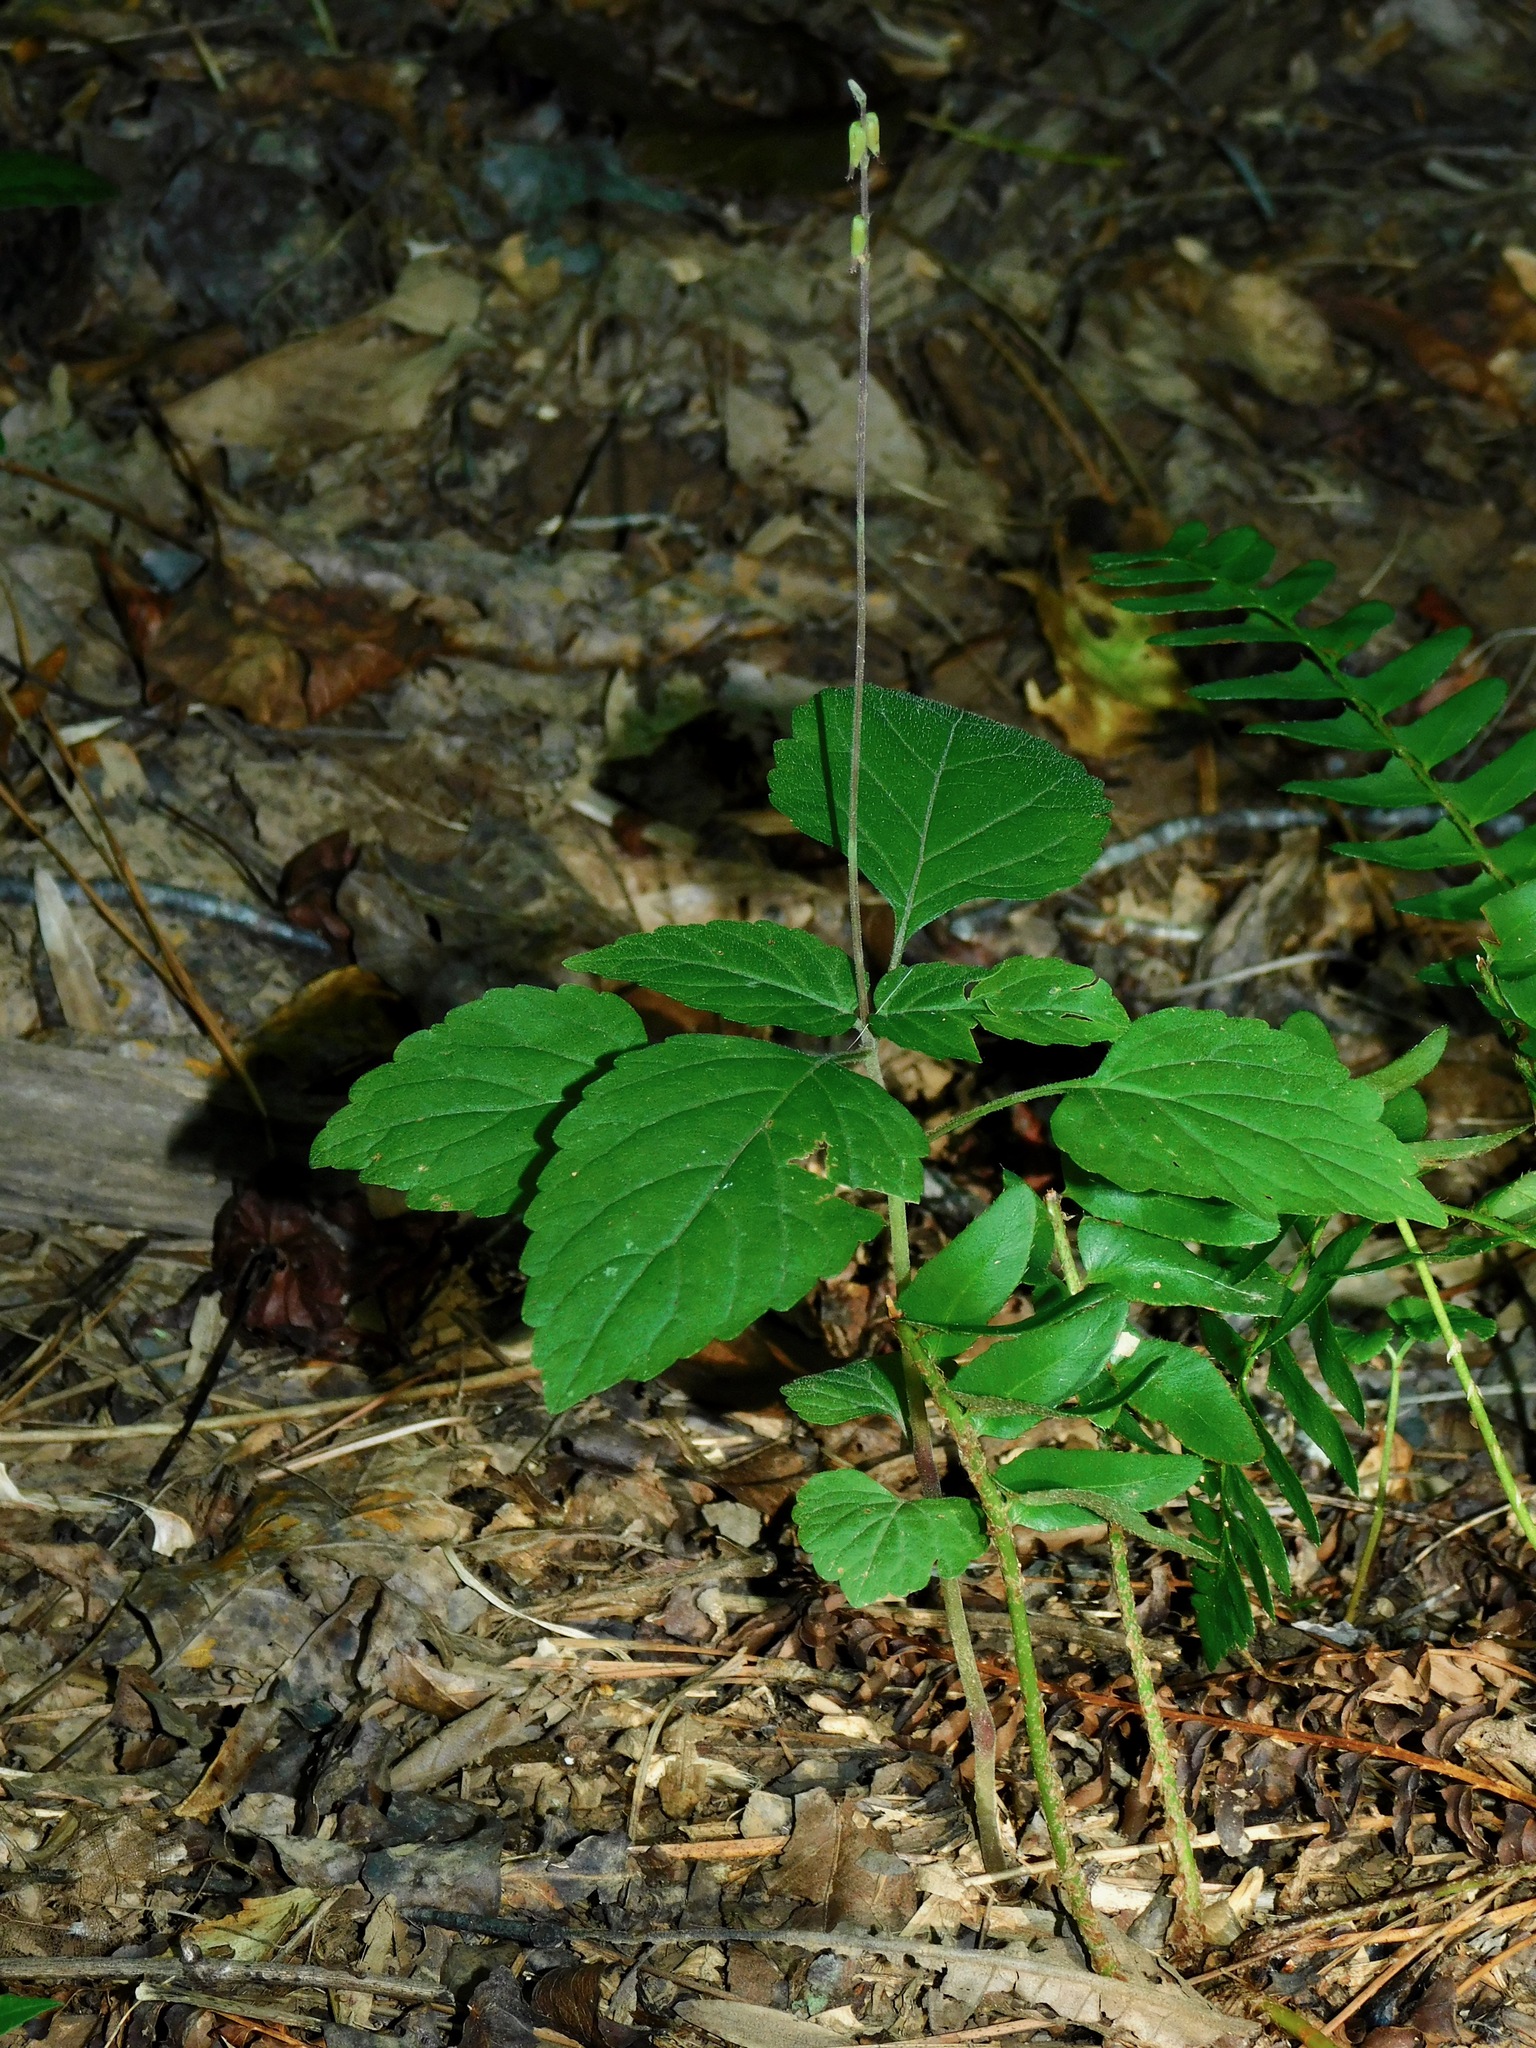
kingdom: Plantae
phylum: Tracheophyta
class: Magnoliopsida
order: Lamiales
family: Phrymaceae
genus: Phryma
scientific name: Phryma leptostachya
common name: American lopseed
